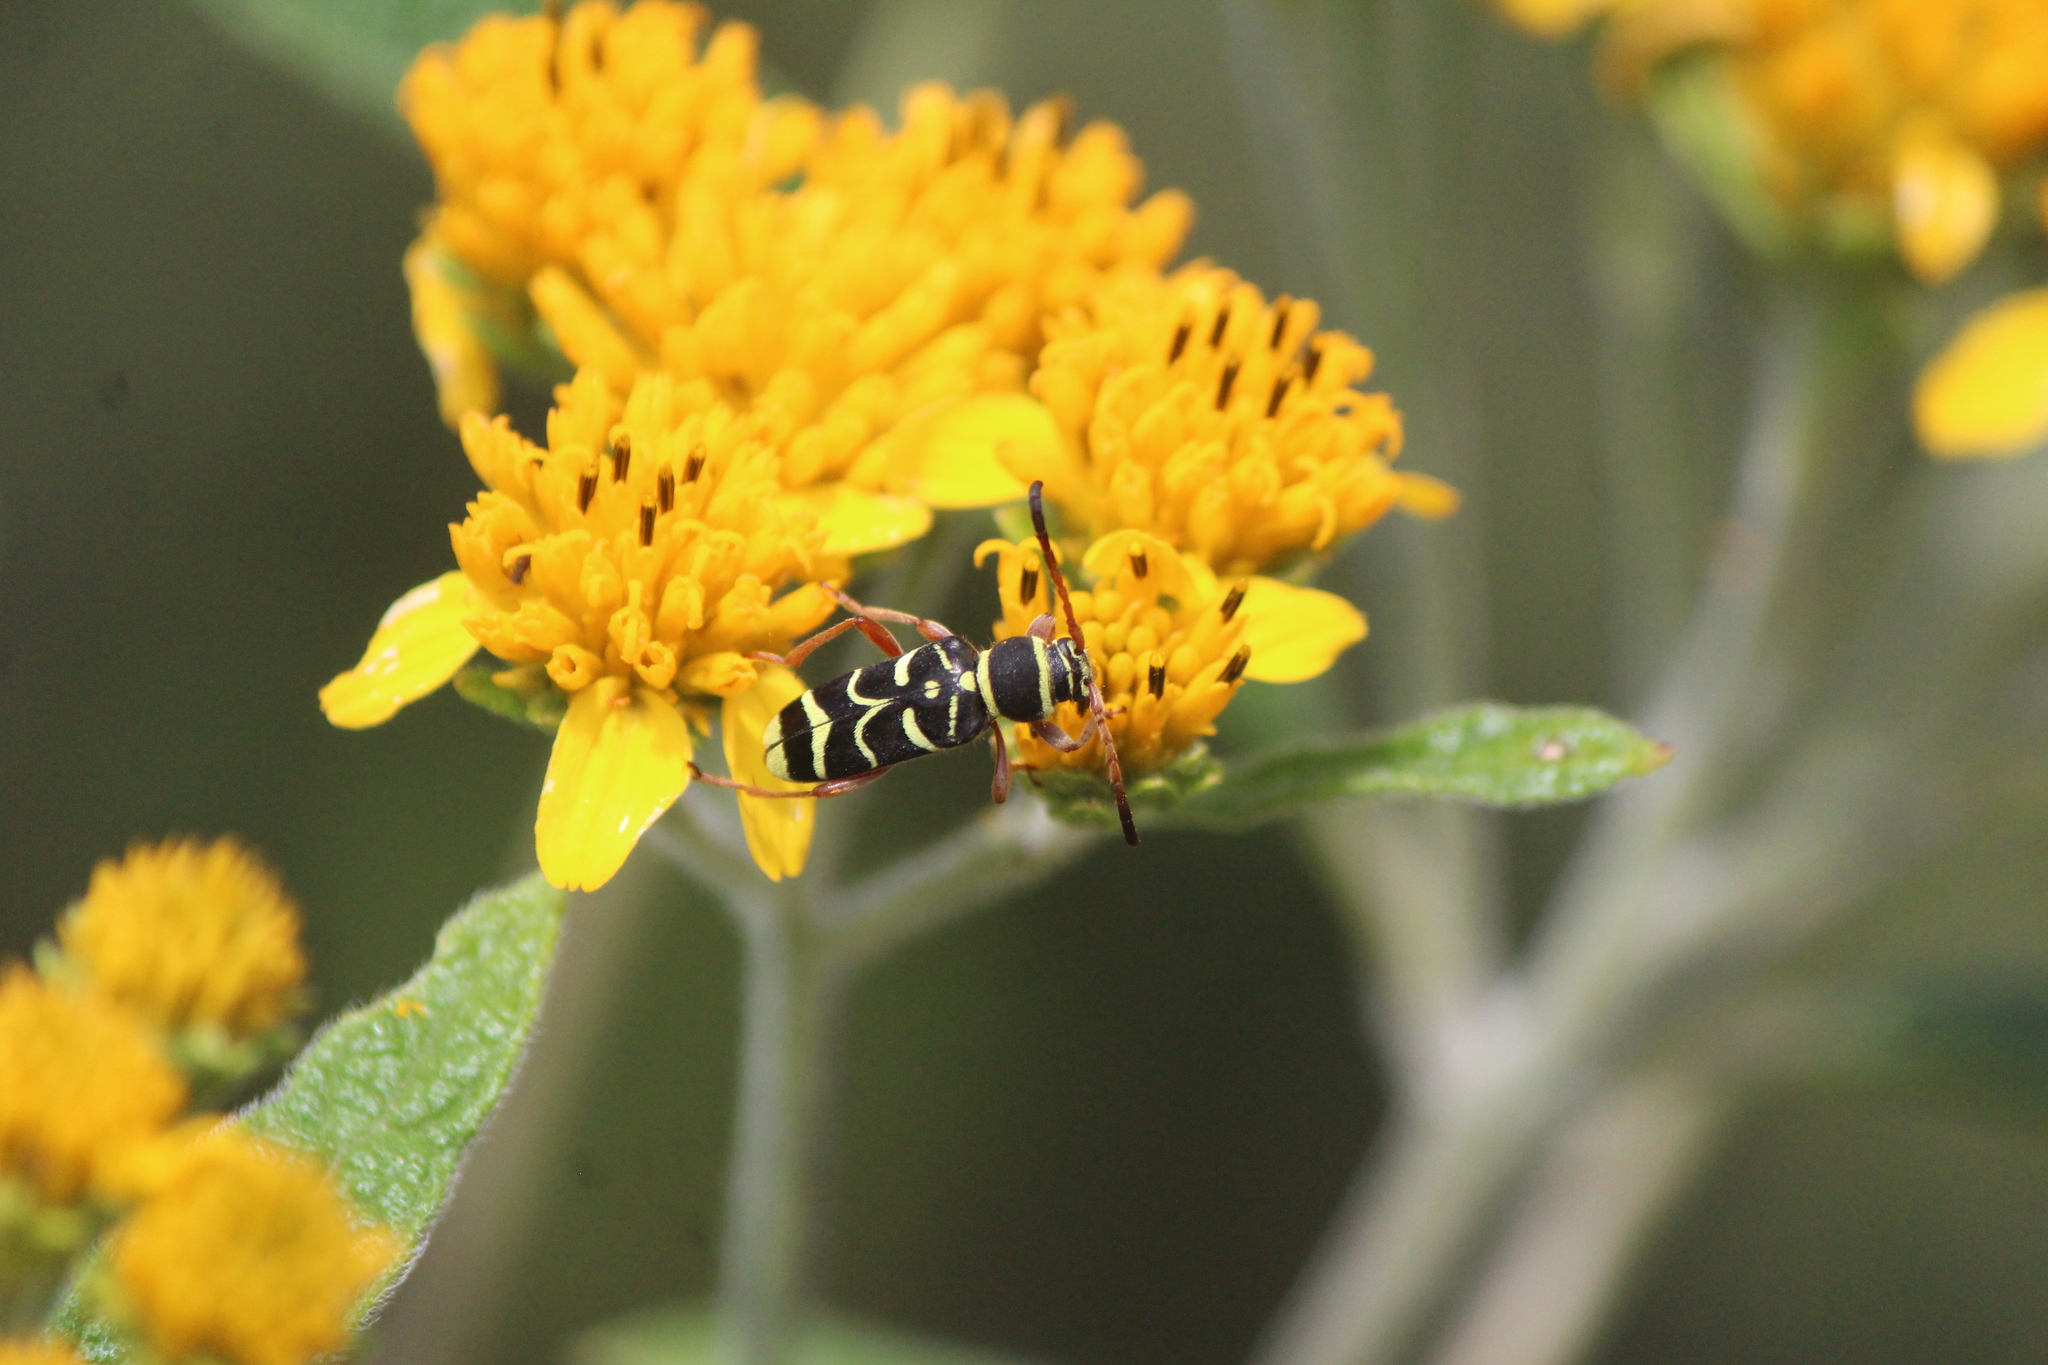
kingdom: Animalia
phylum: Arthropoda
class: Insecta
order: Coleoptera
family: Cerambycidae
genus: Ochraethes
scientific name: Ochraethes dimidiaticornis
